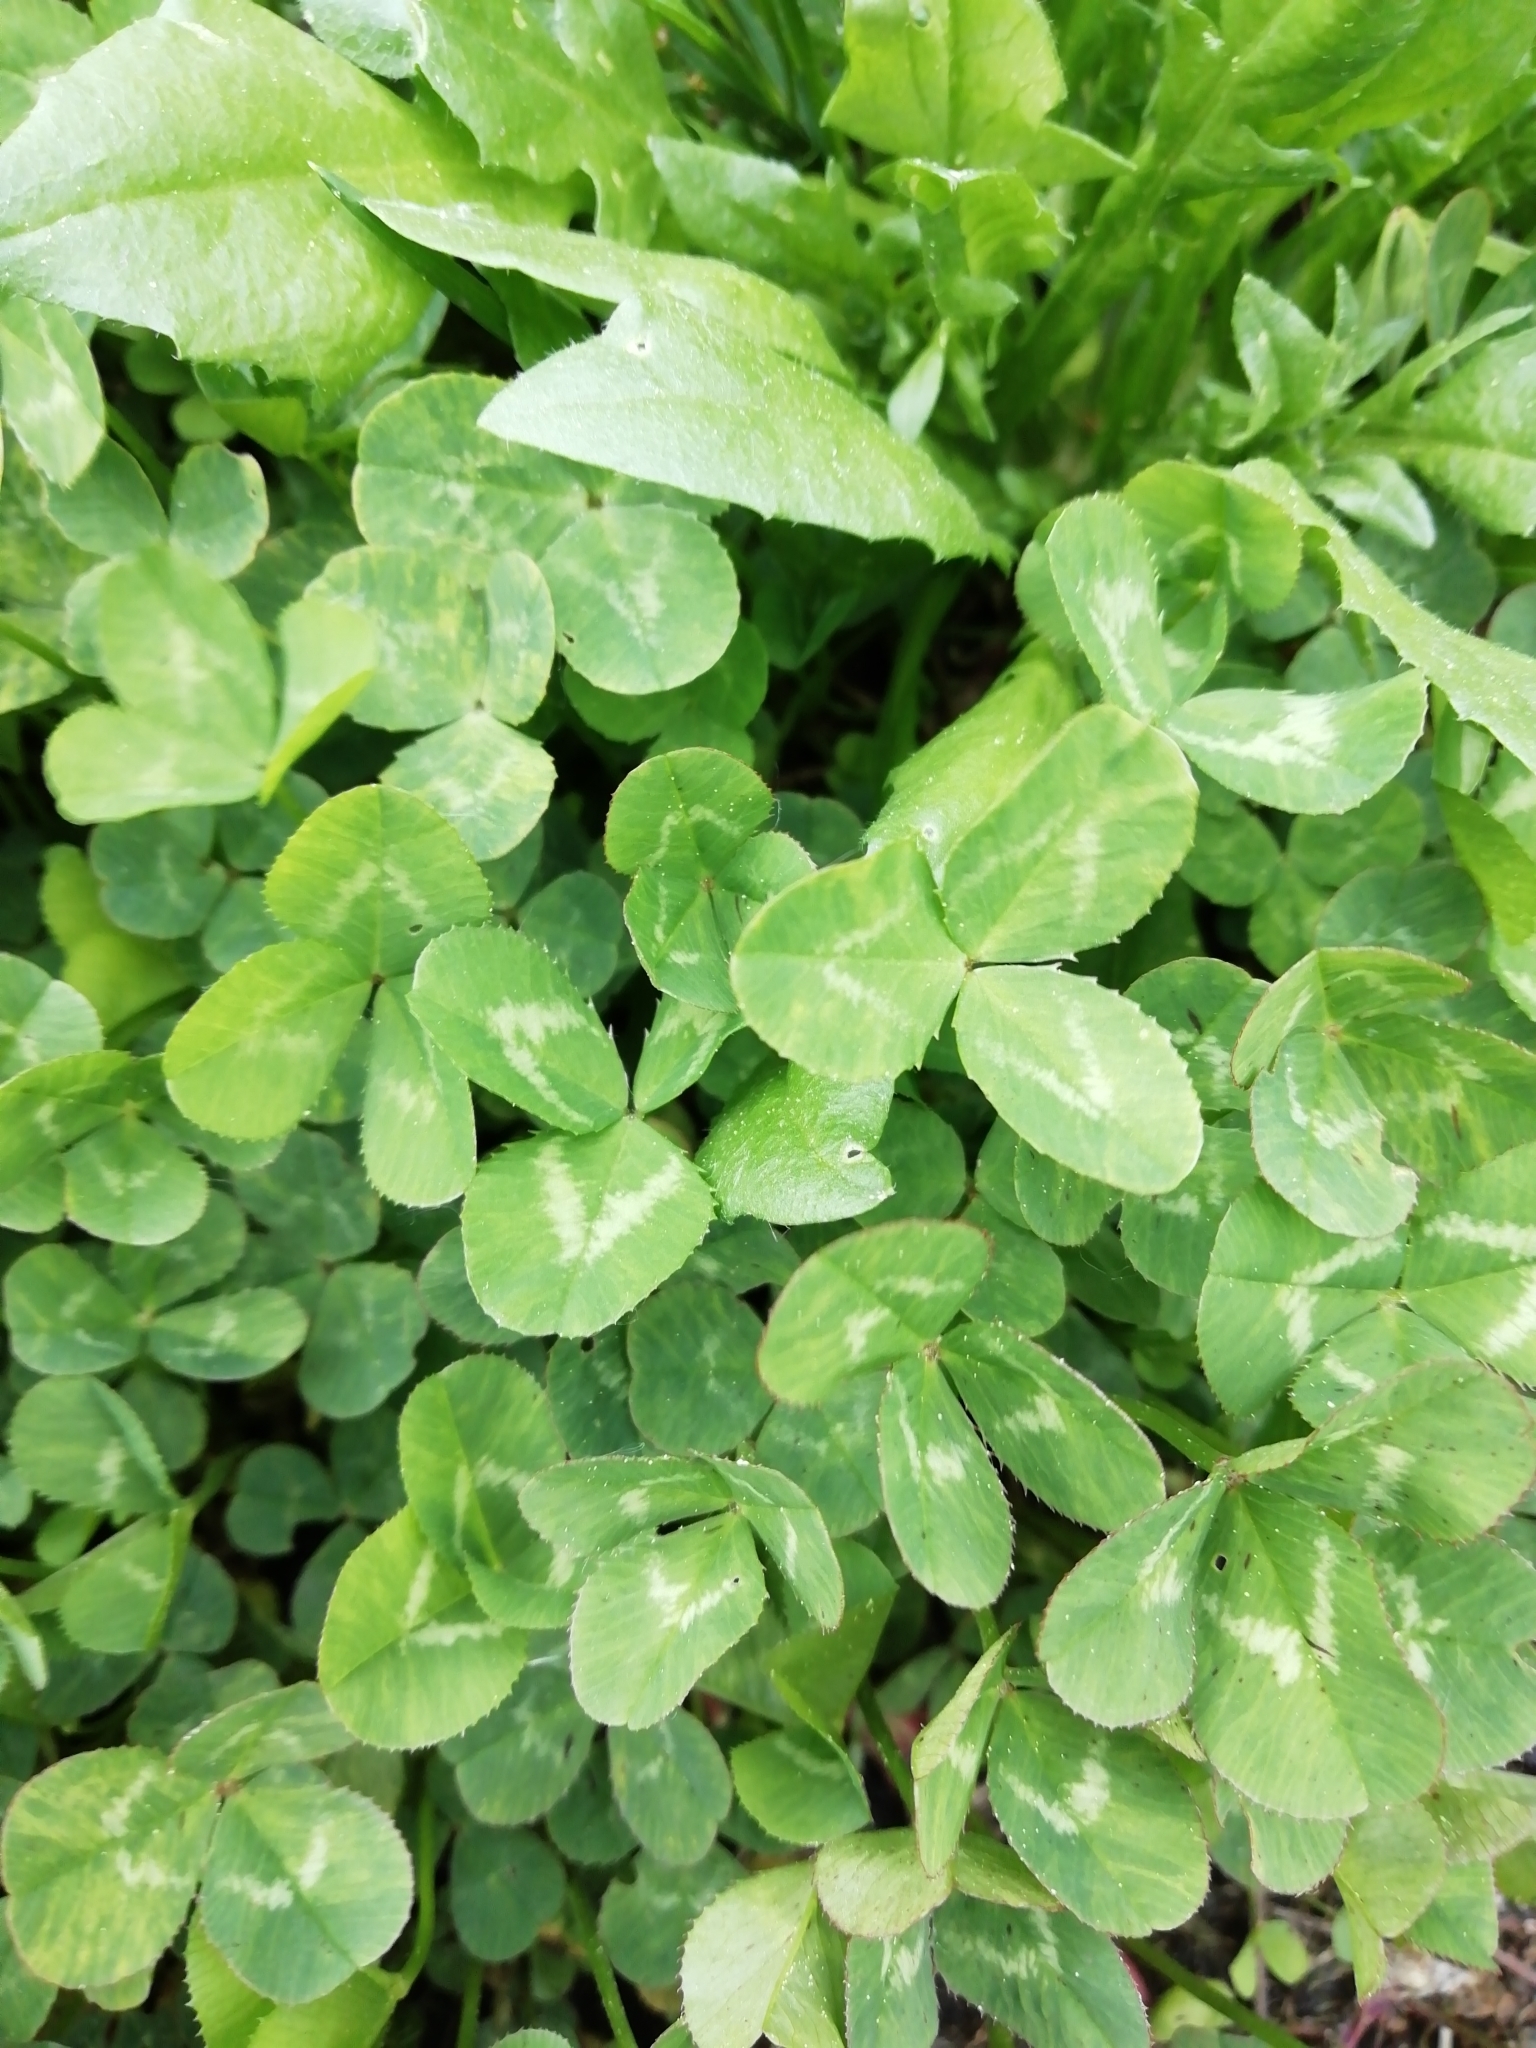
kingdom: Plantae
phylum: Tracheophyta
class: Magnoliopsida
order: Fabales
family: Fabaceae
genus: Trifolium
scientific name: Trifolium repens
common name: White clover
